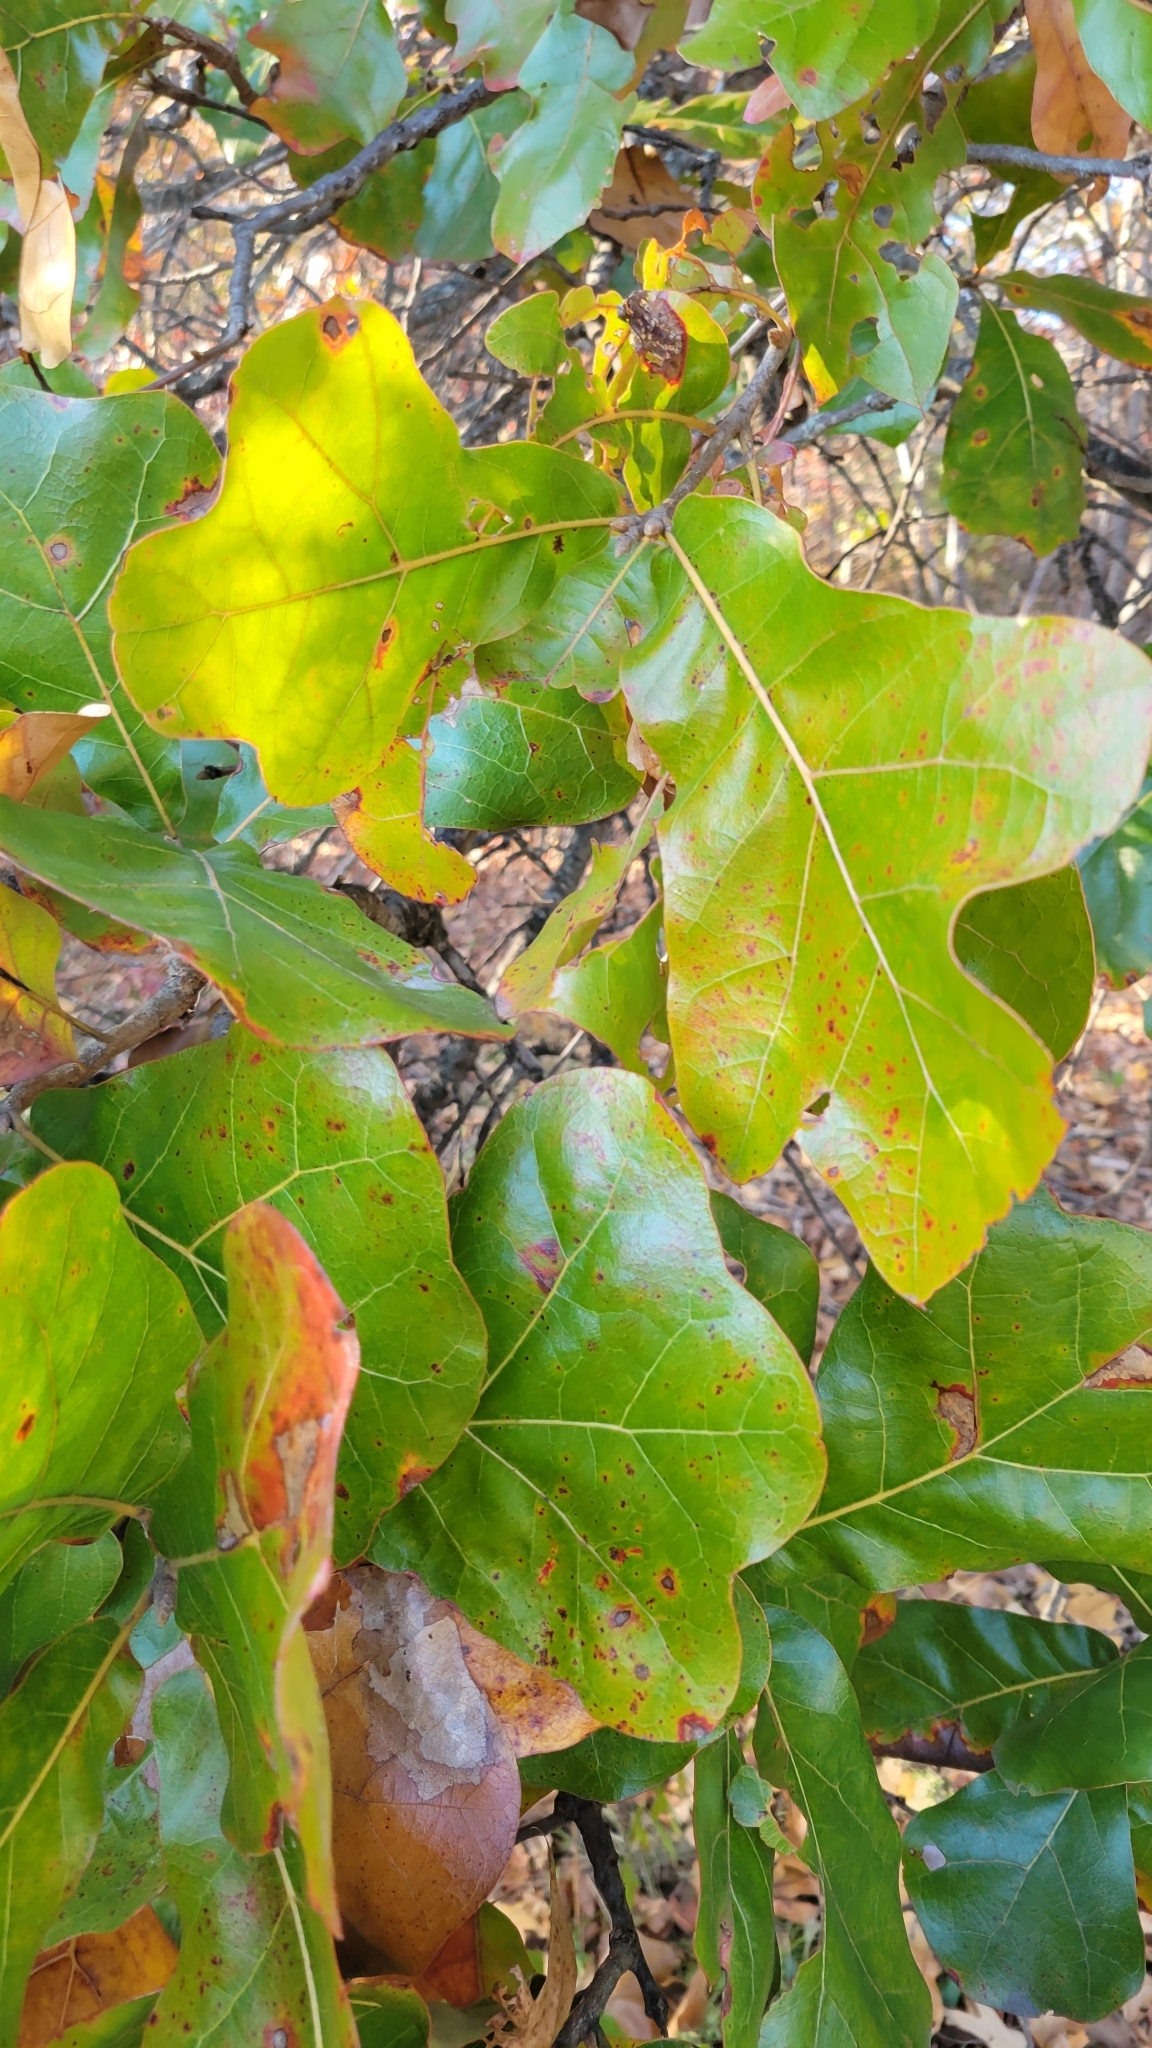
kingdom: Plantae
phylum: Tracheophyta
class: Magnoliopsida
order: Fagales
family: Fagaceae
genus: Quercus
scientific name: Quercus marilandica
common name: Blackjack oak
